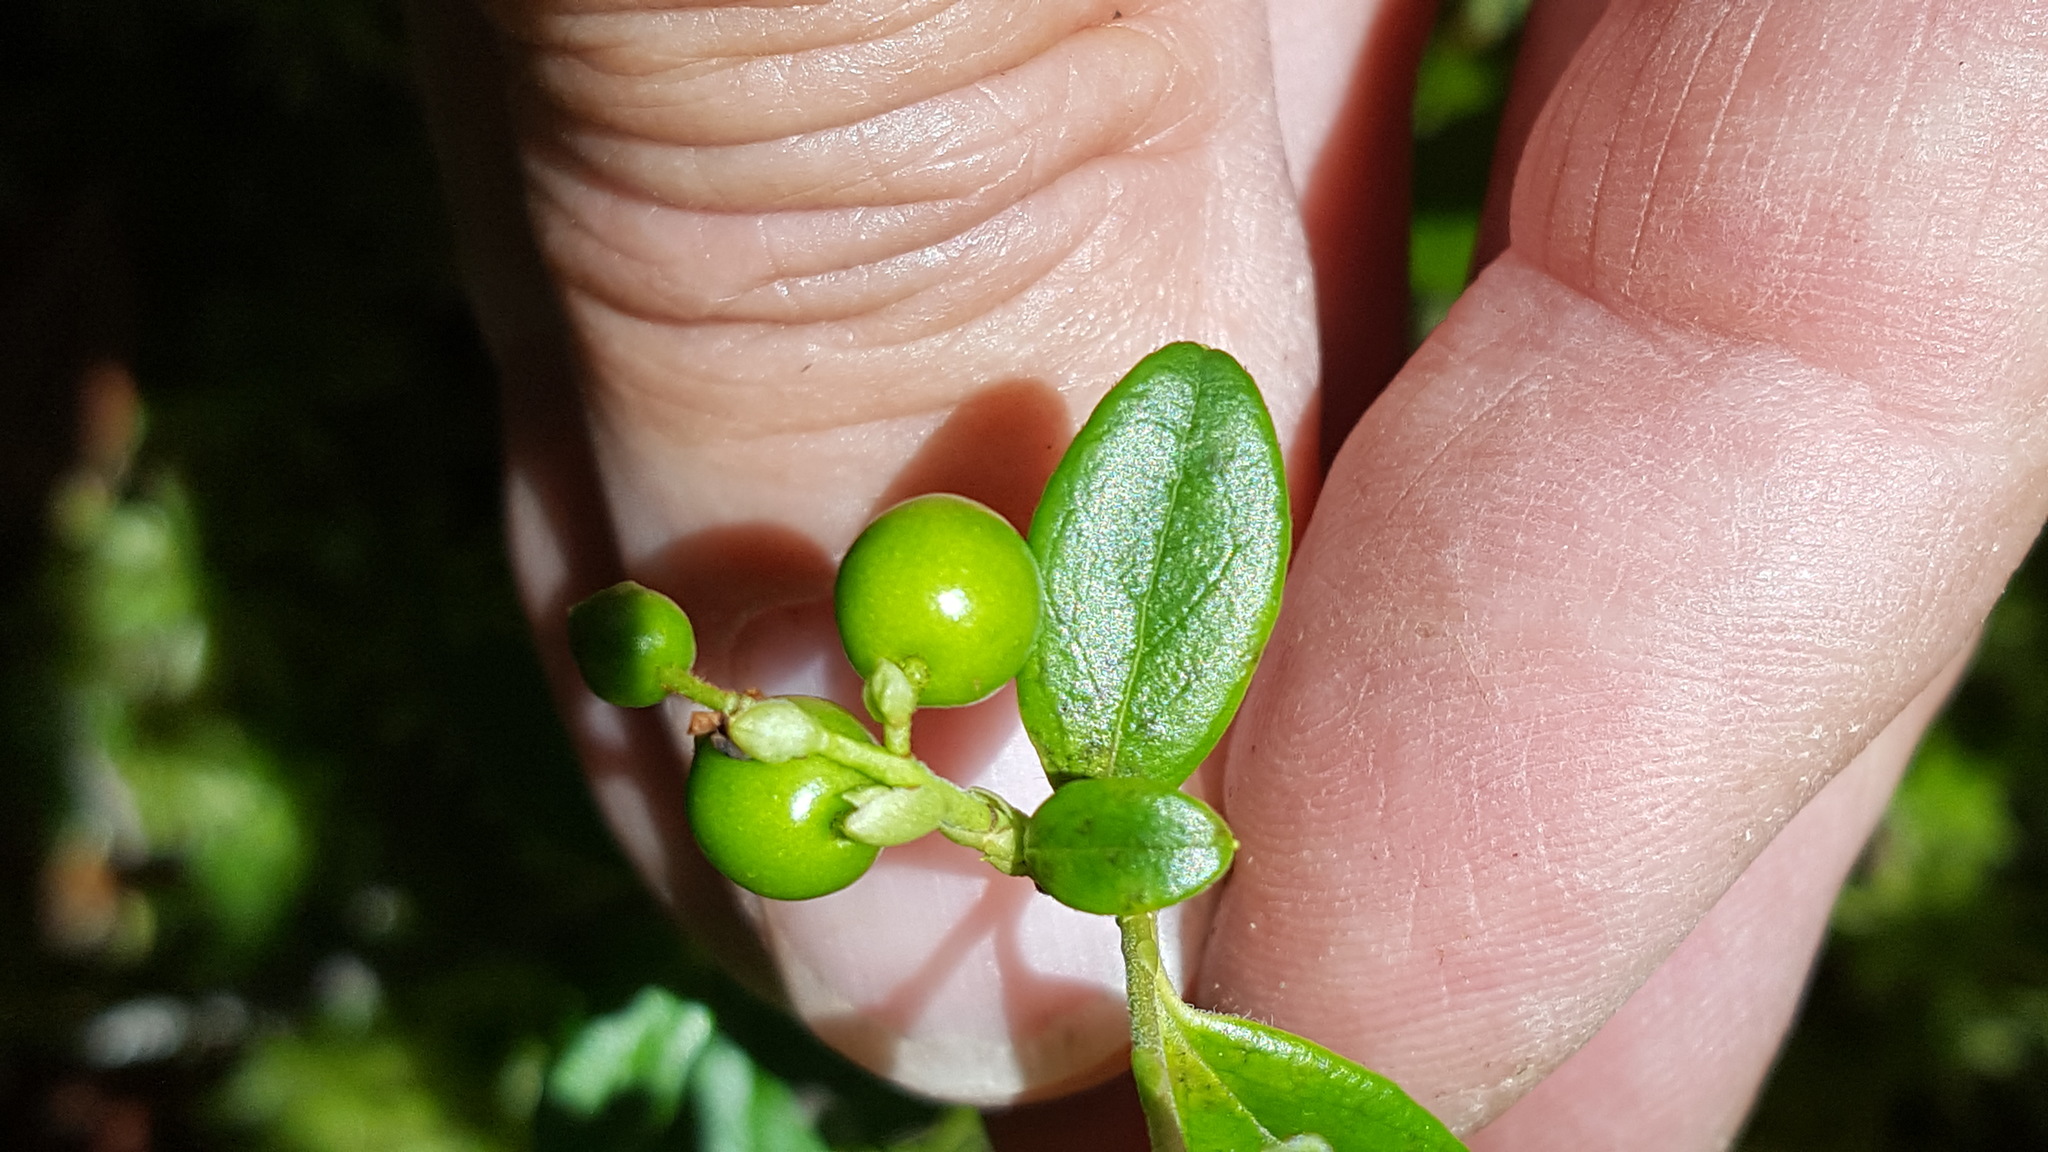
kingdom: Plantae
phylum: Tracheophyta
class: Magnoliopsida
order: Ericales
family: Ericaceae
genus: Vaccinium
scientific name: Vaccinium vitis-idaea
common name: Cowberry
